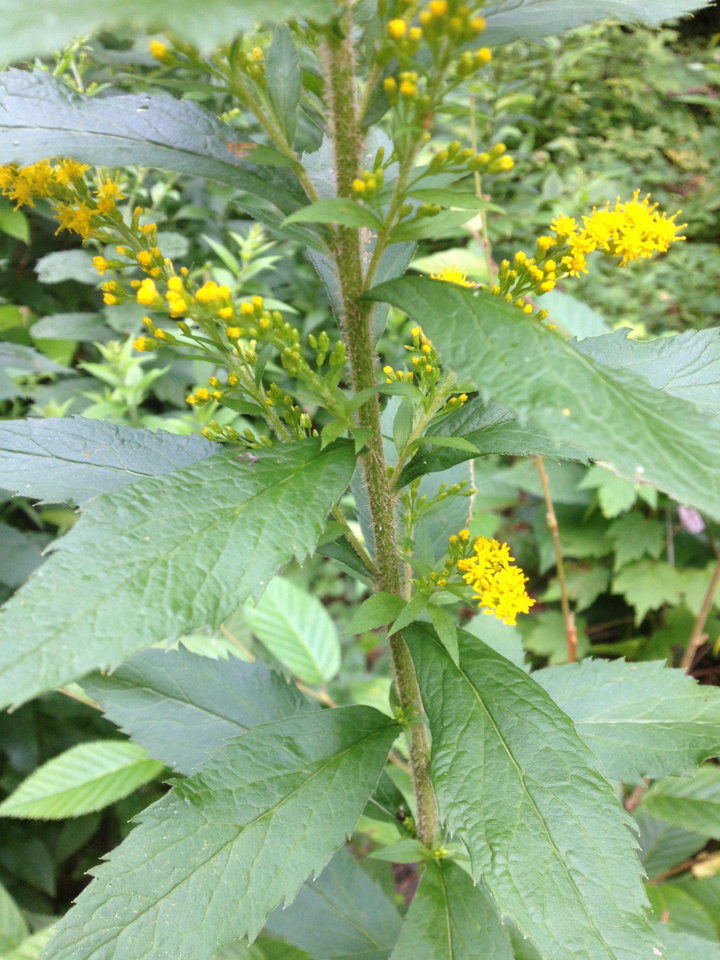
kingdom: Plantae
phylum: Tracheophyta
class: Magnoliopsida
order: Asterales
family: Asteraceae
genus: Solidago
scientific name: Solidago rugosa
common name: Rough-stemmed goldenrod
